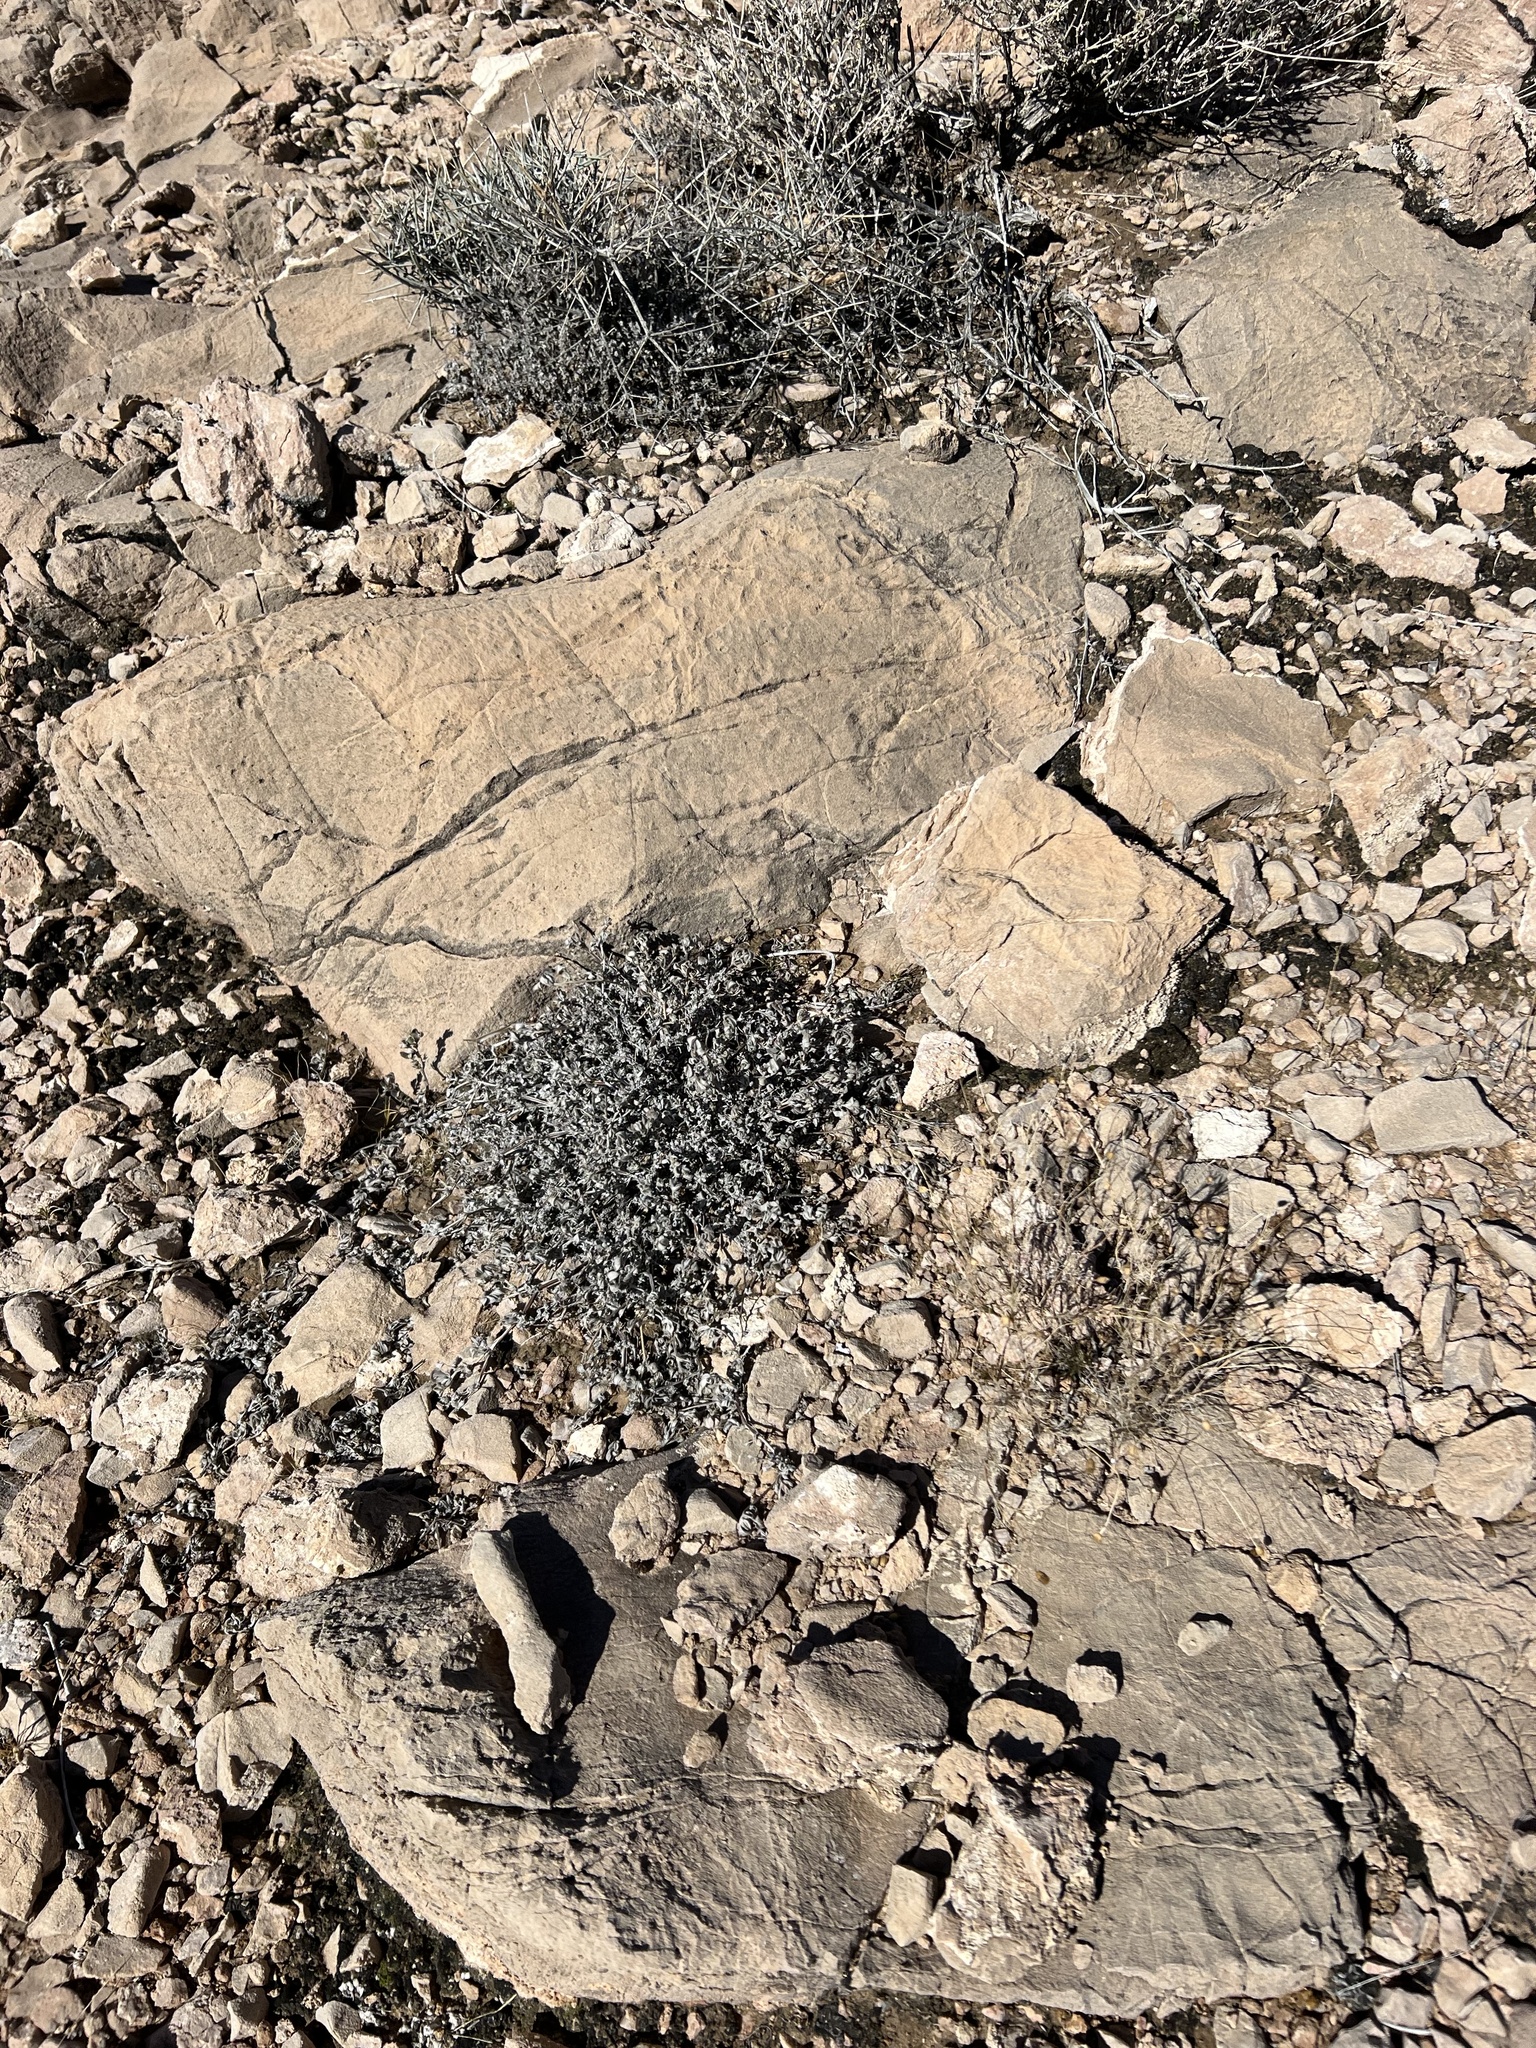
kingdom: Plantae
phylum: Tracheophyta
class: Magnoliopsida
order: Boraginales
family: Ehretiaceae
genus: Tiquilia
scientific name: Tiquilia canescens
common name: Hairy tiquilia
